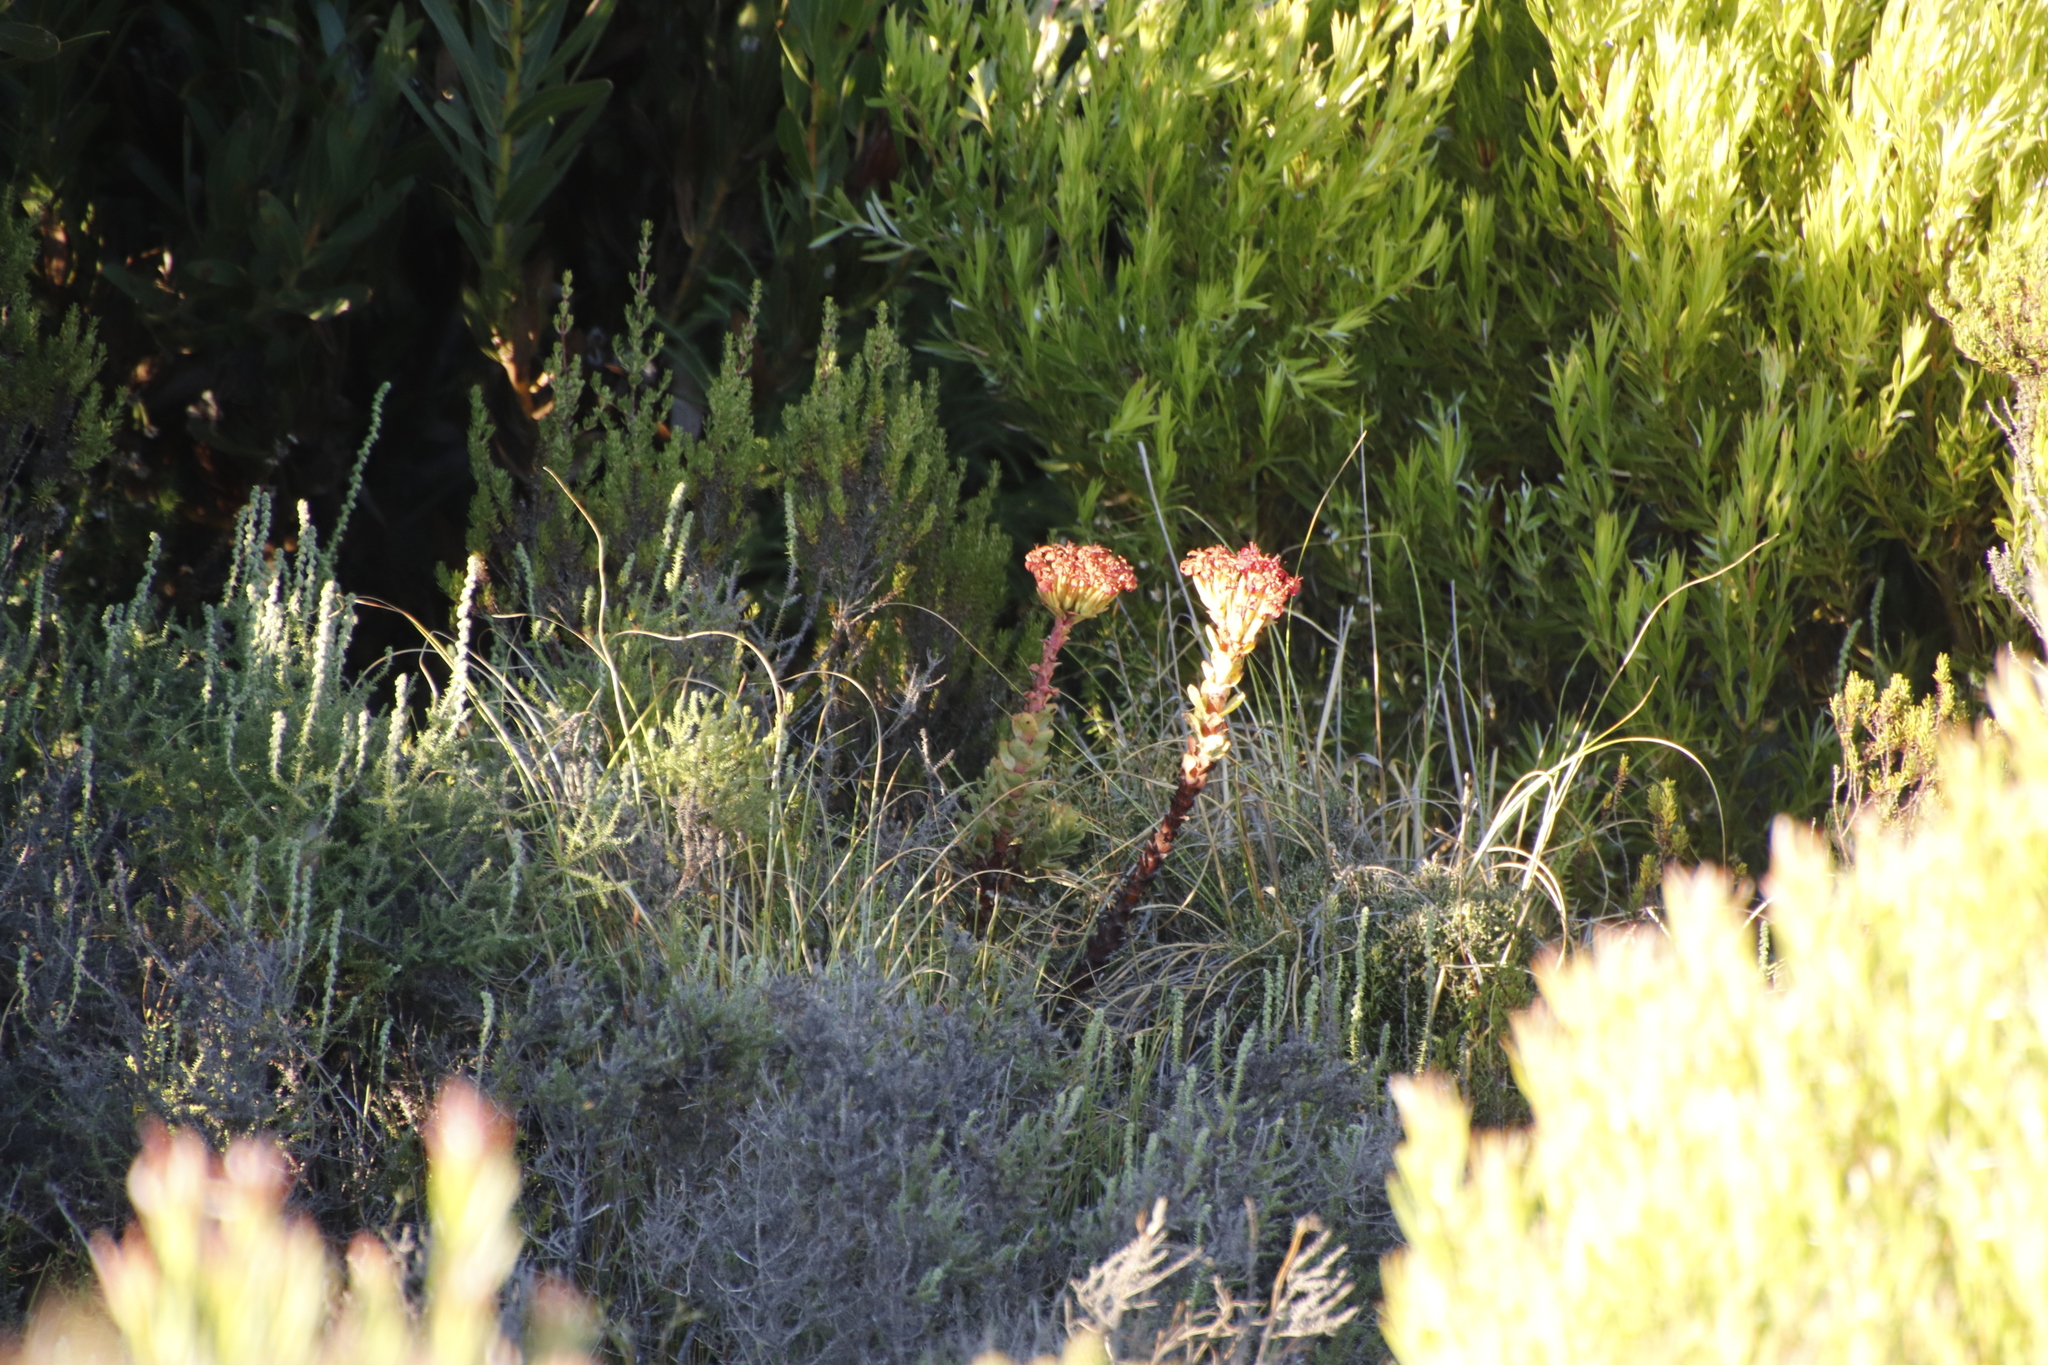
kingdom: Plantae
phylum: Tracheophyta
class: Magnoliopsida
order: Saxifragales
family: Crassulaceae
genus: Crassula
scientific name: Crassula coccinea
